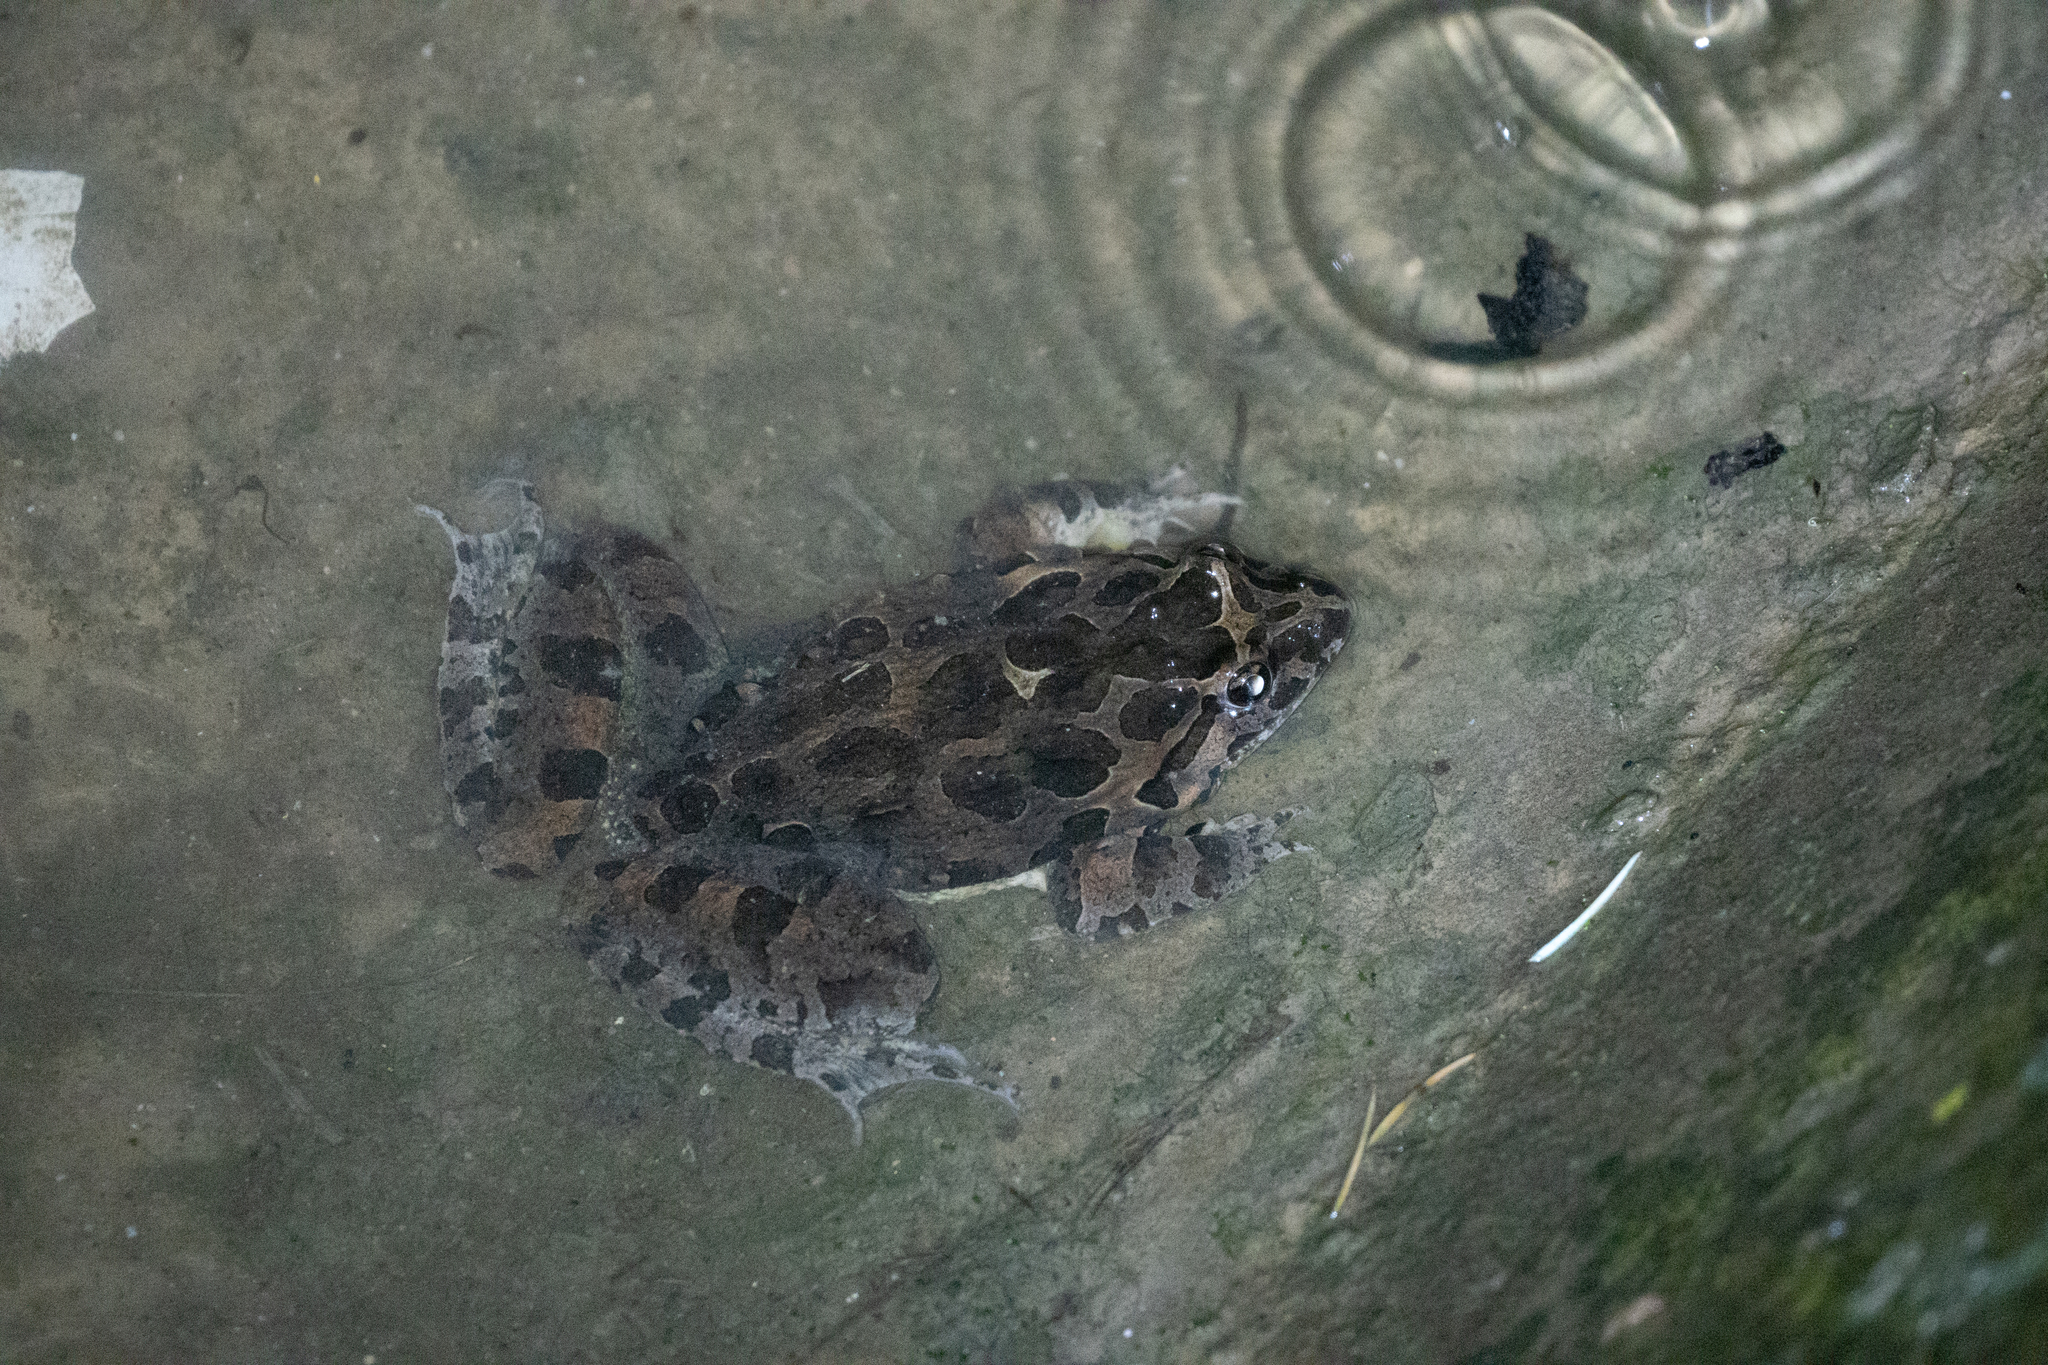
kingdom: Animalia
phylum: Chordata
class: Amphibia
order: Anura
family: Alytidae
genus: Discoglossus
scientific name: Discoglossus pictus
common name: Painted frog
